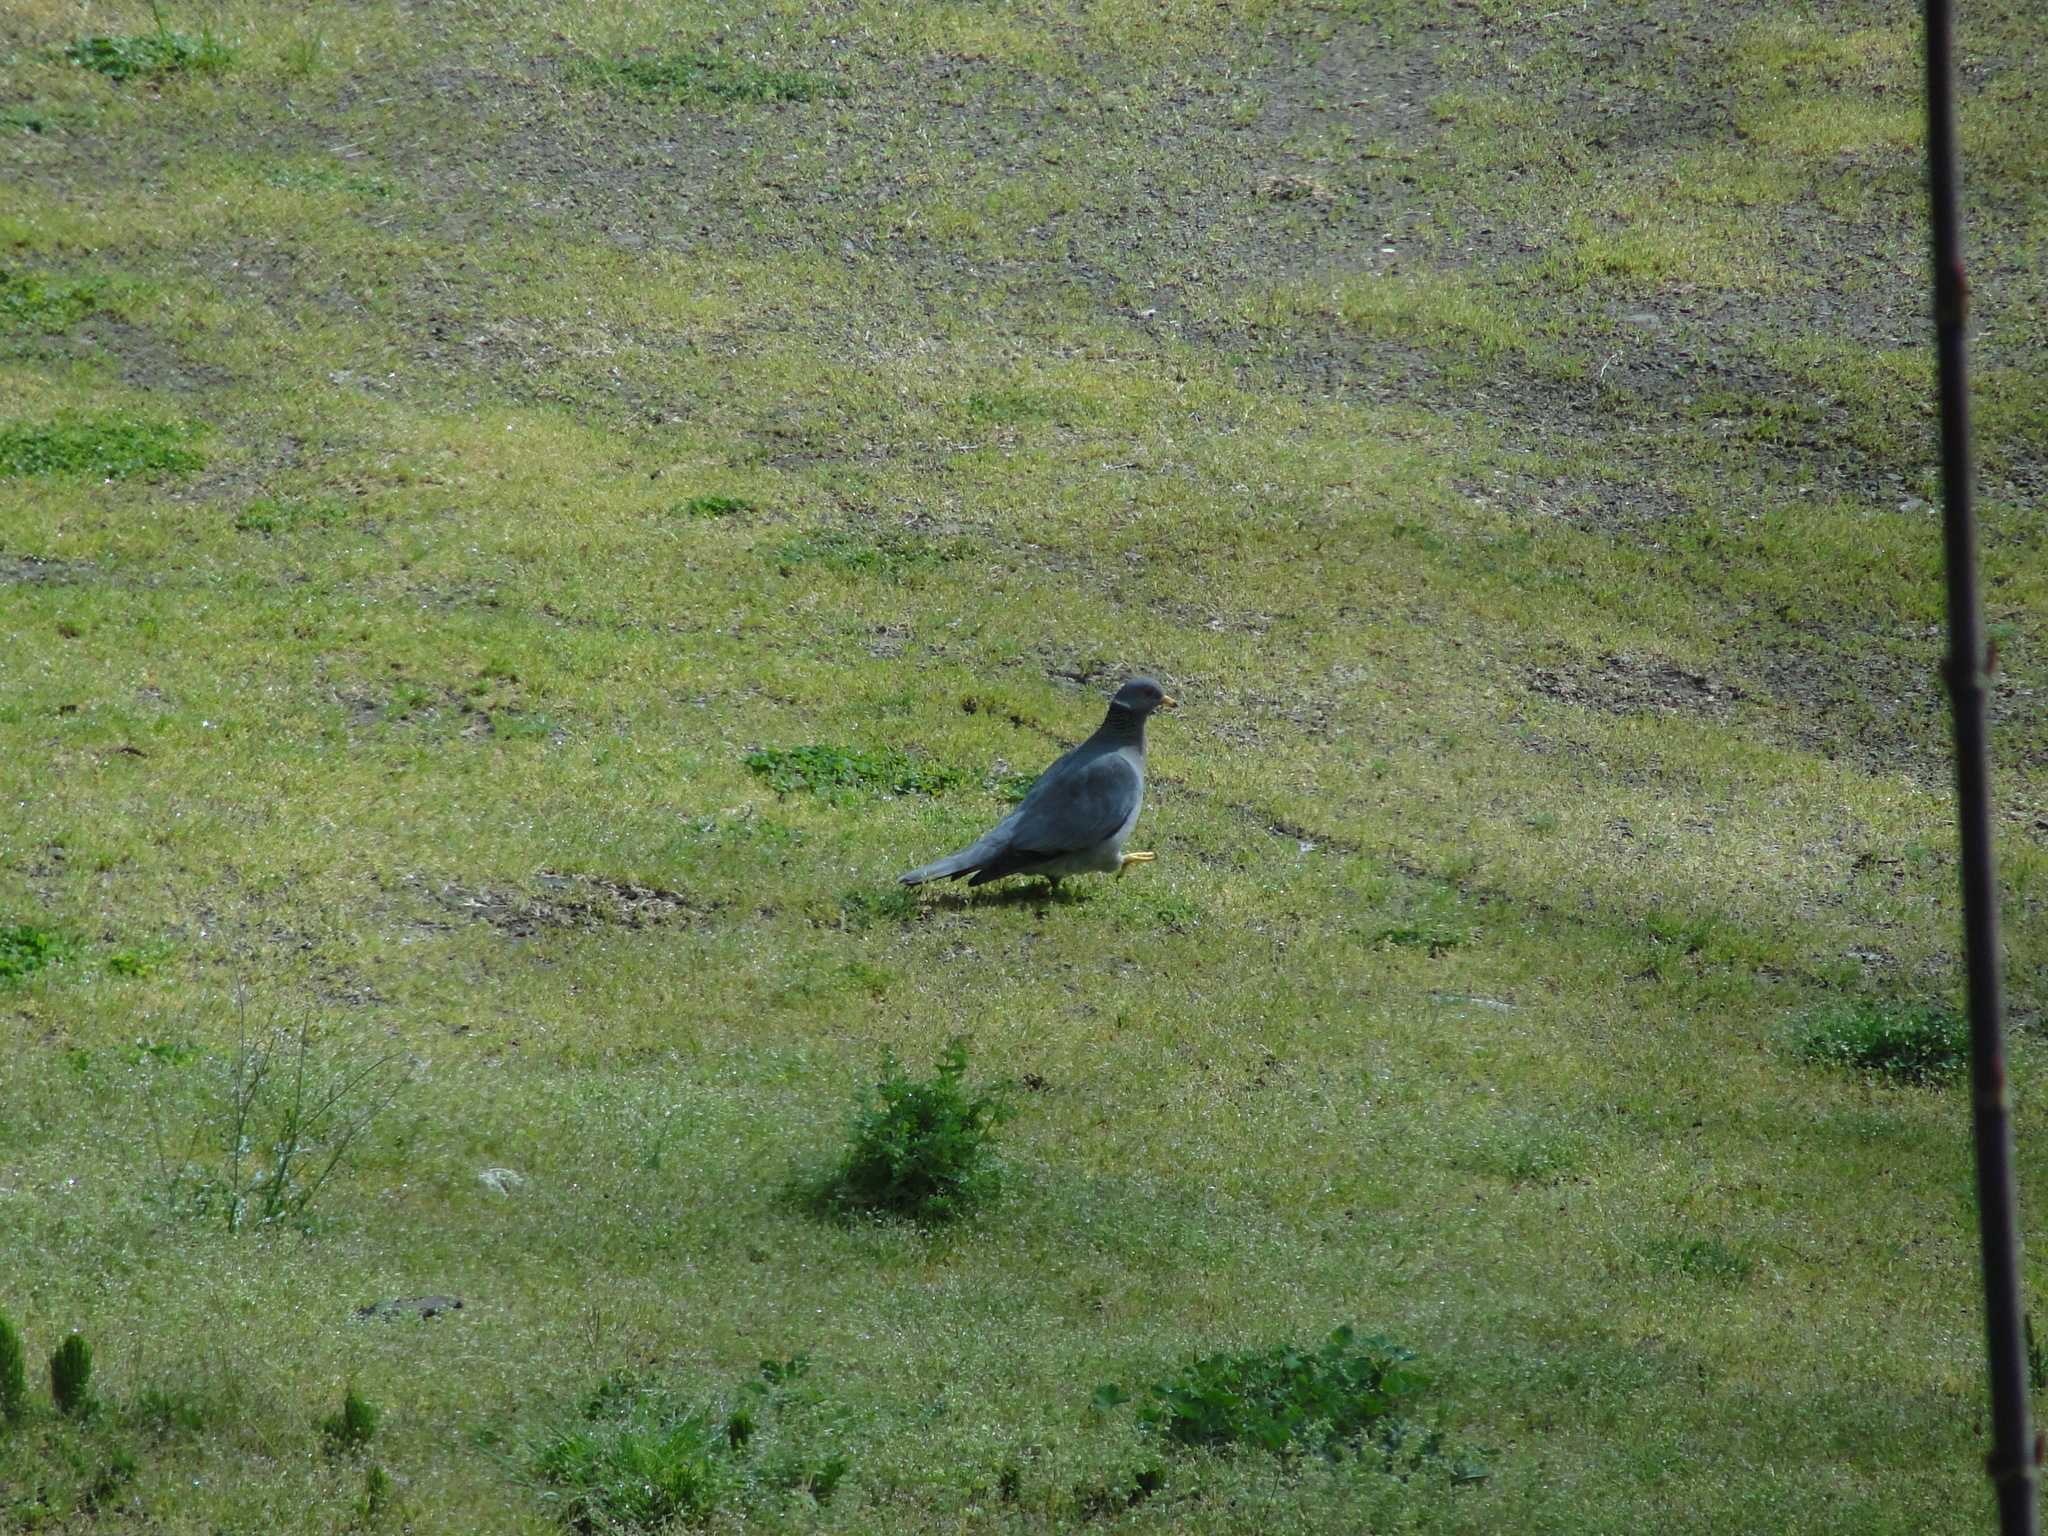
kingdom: Animalia
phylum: Chordata
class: Aves
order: Columbiformes
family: Columbidae
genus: Patagioenas
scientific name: Patagioenas fasciata
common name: Band-tailed pigeon
